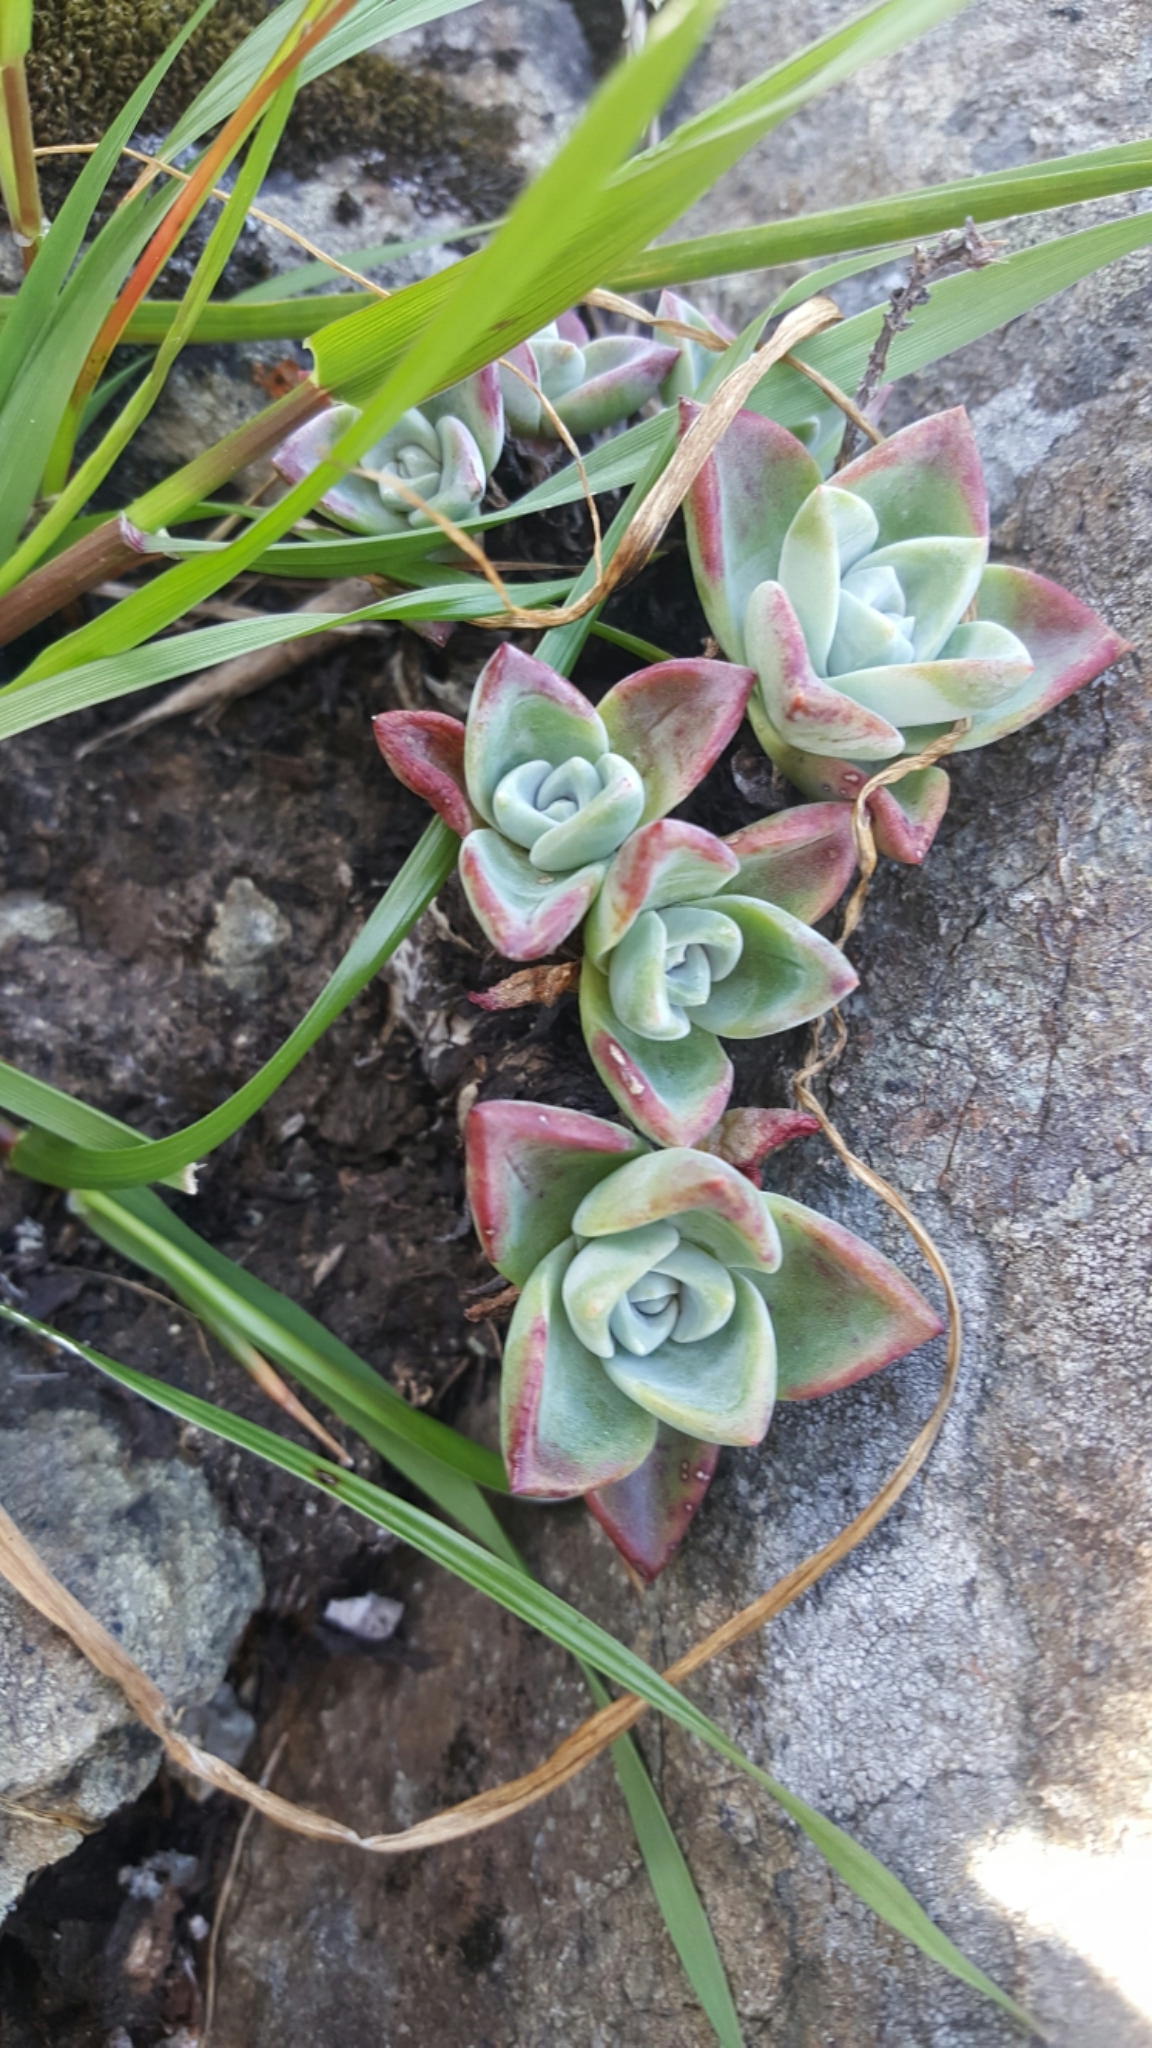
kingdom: Plantae
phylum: Tracheophyta
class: Magnoliopsida
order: Saxifragales
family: Crassulaceae
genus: Dudleya
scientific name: Dudleya farinosa
